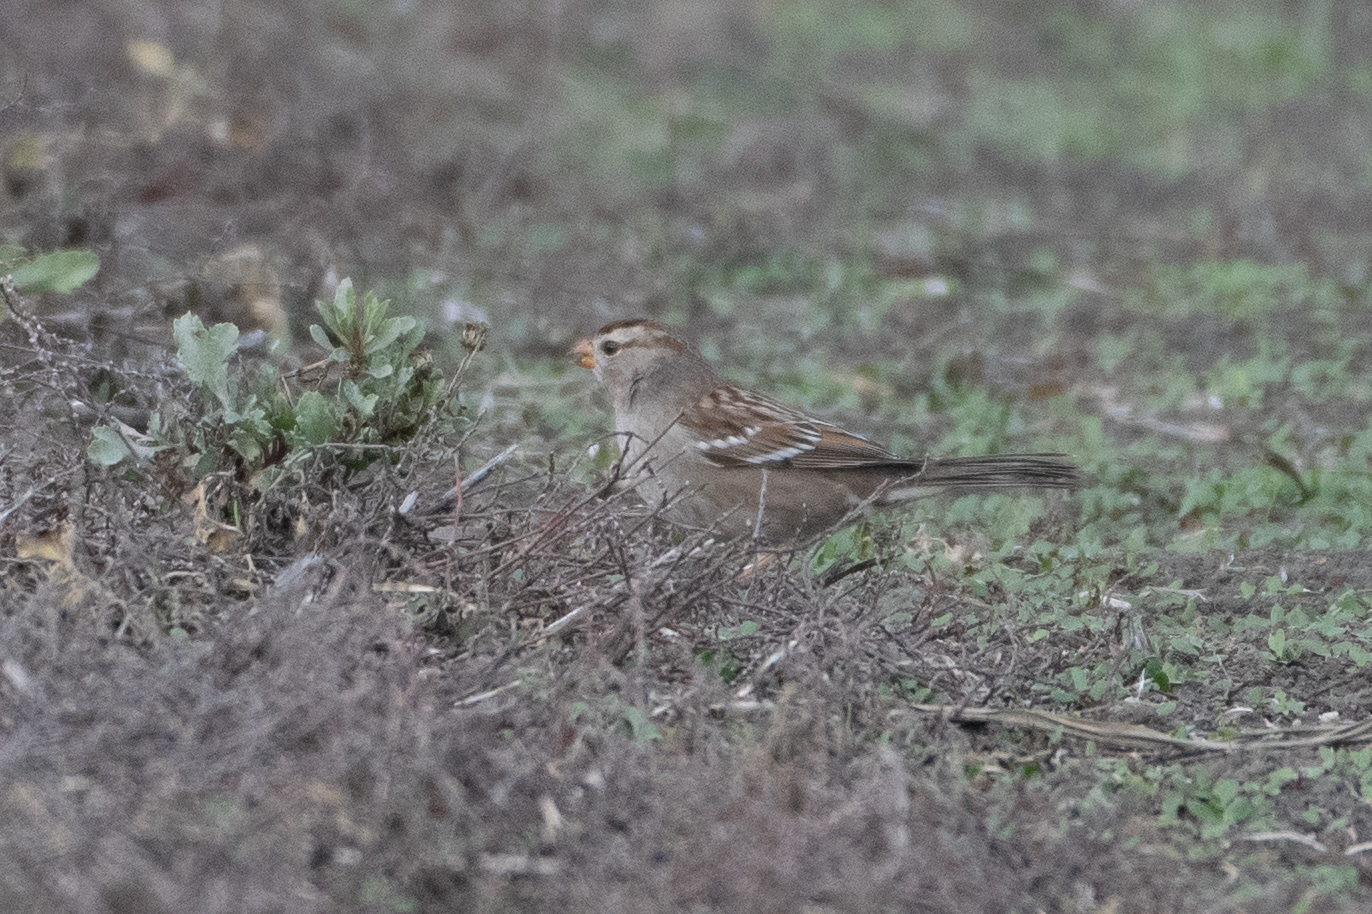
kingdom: Animalia
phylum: Chordata
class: Aves
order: Passeriformes
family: Passerellidae
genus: Zonotrichia
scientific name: Zonotrichia leucophrys
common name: White-crowned sparrow
